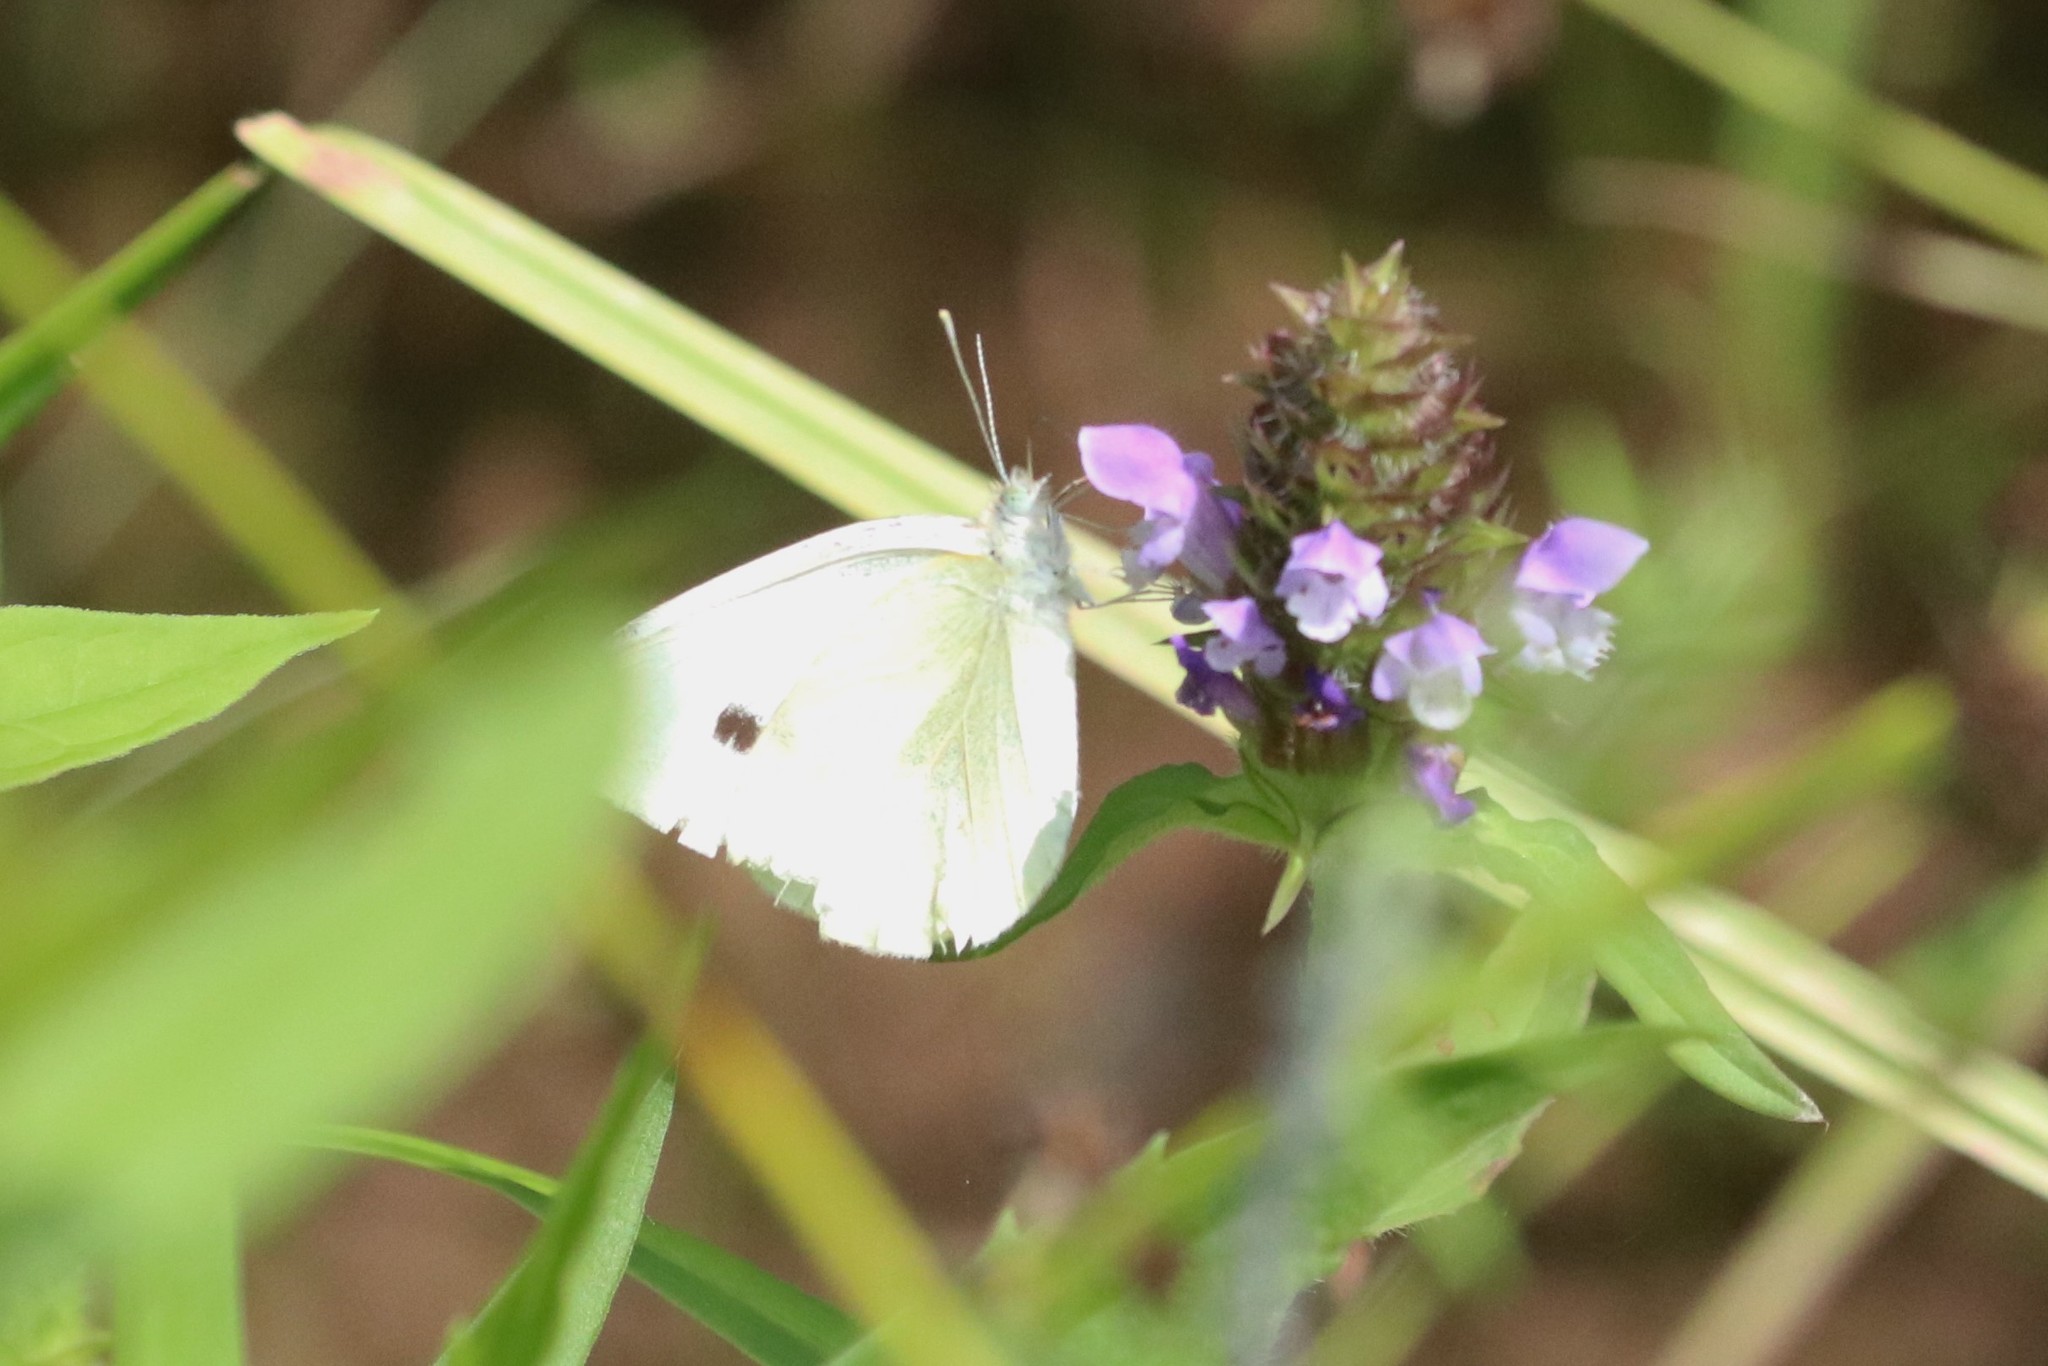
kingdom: Animalia
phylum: Arthropoda
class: Insecta
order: Lepidoptera
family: Pieridae
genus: Pieris
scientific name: Pieris rapae
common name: Small white
